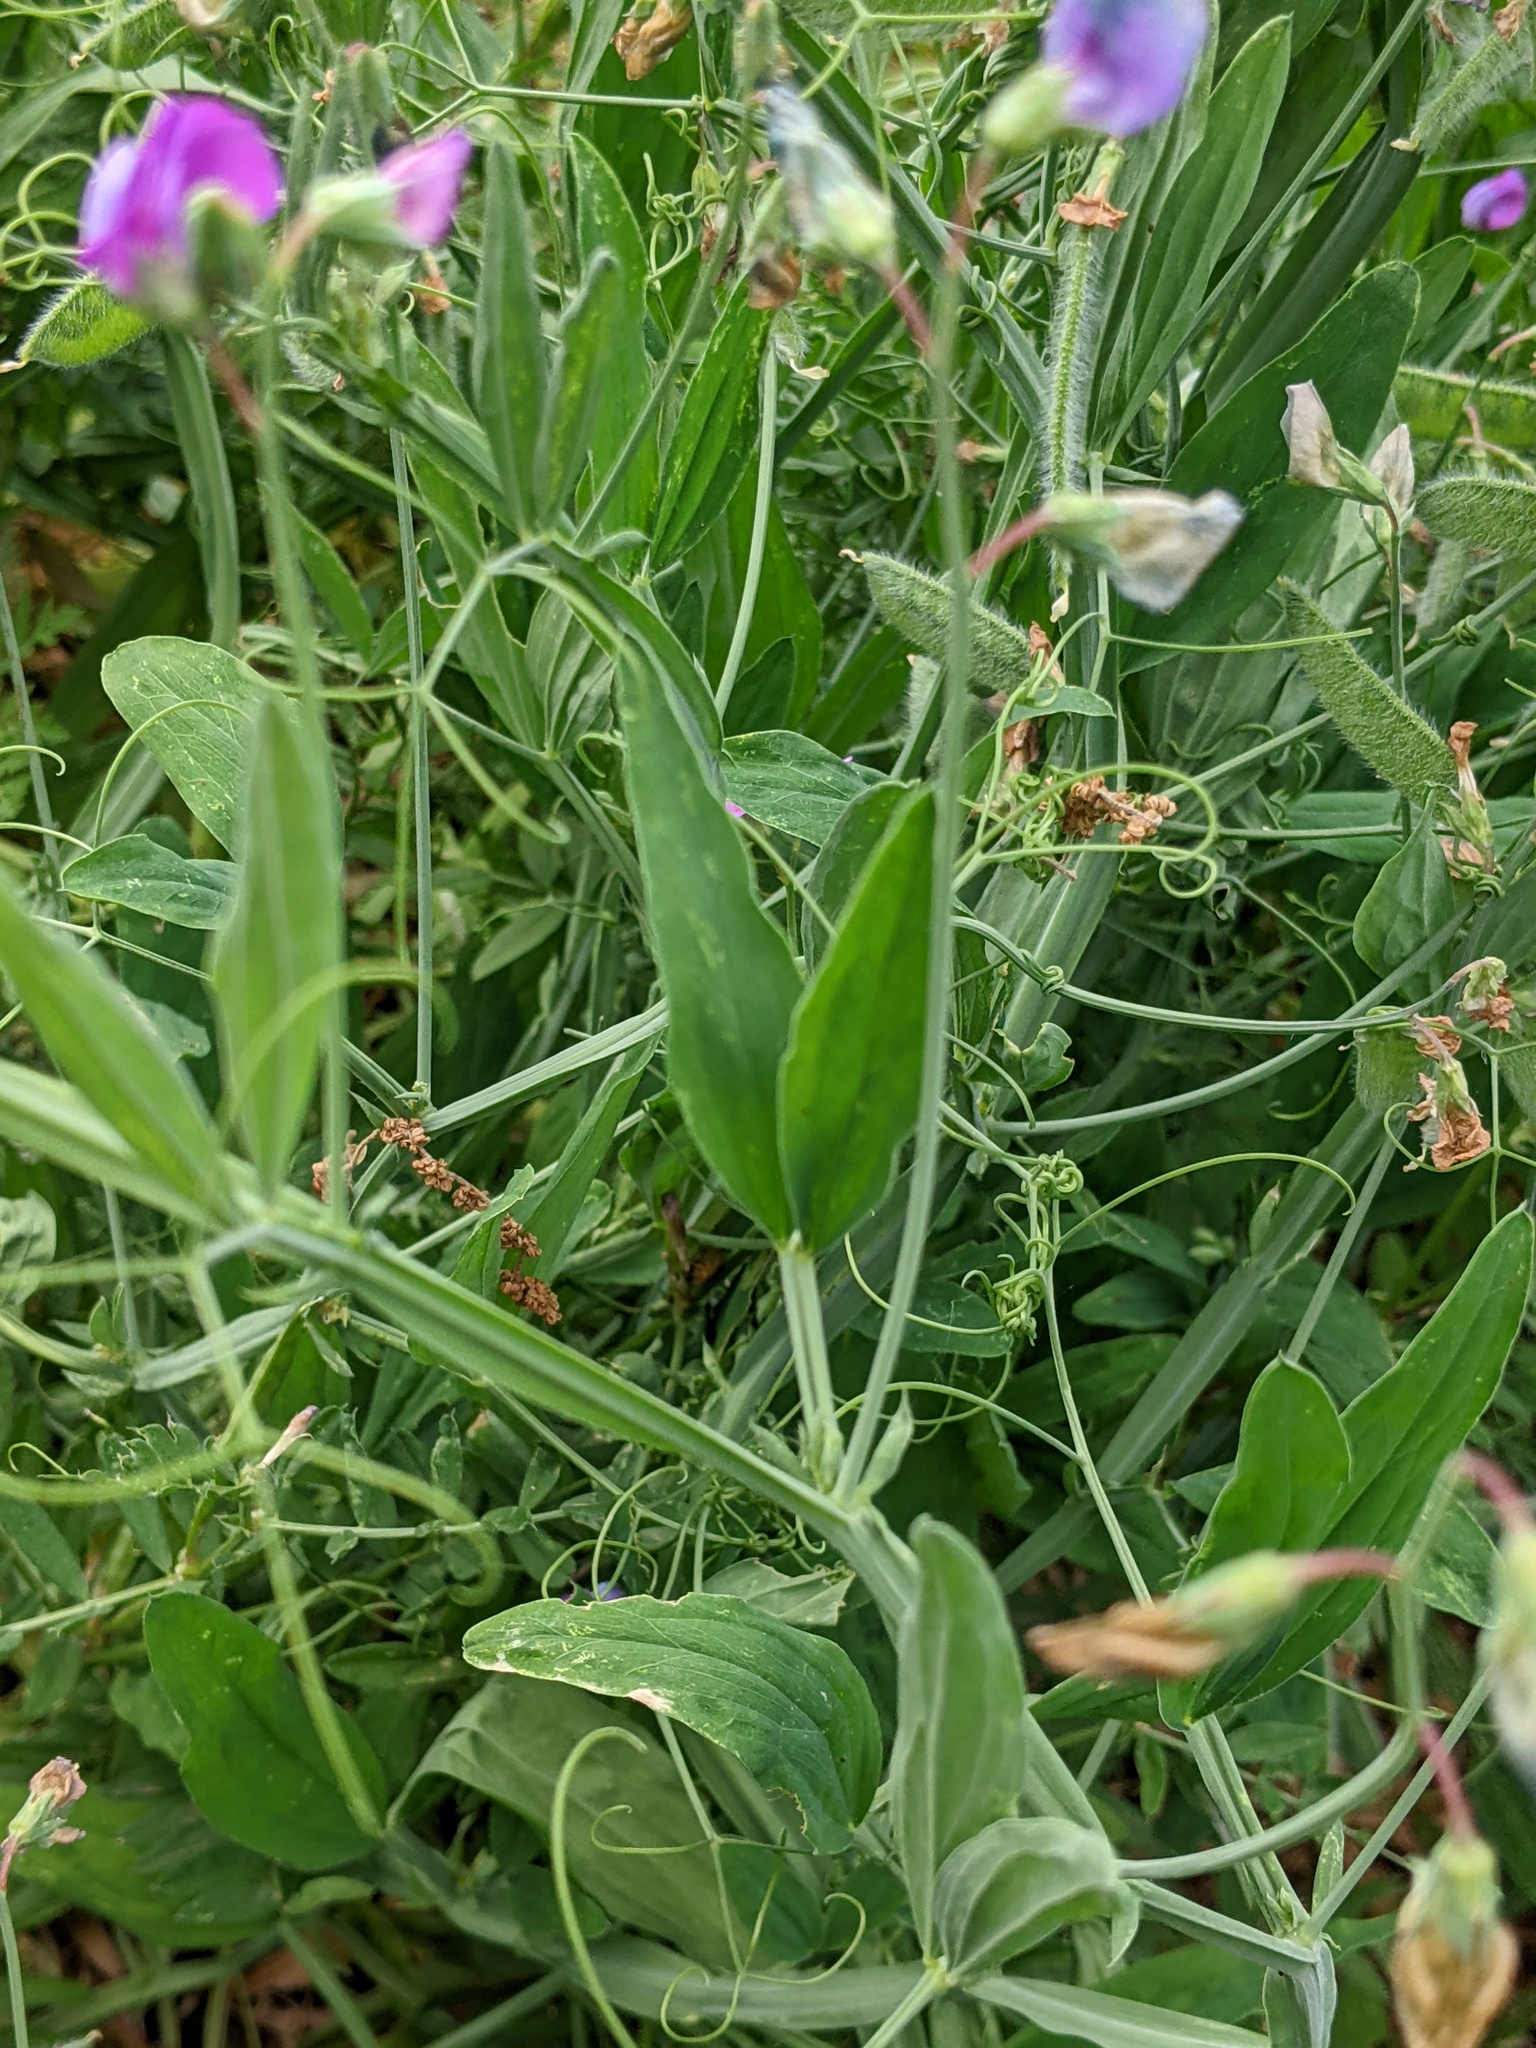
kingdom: Plantae
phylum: Tracheophyta
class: Magnoliopsida
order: Fabales
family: Fabaceae
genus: Lathyrus
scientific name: Lathyrus hirsutus
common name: Hairy vetchling
